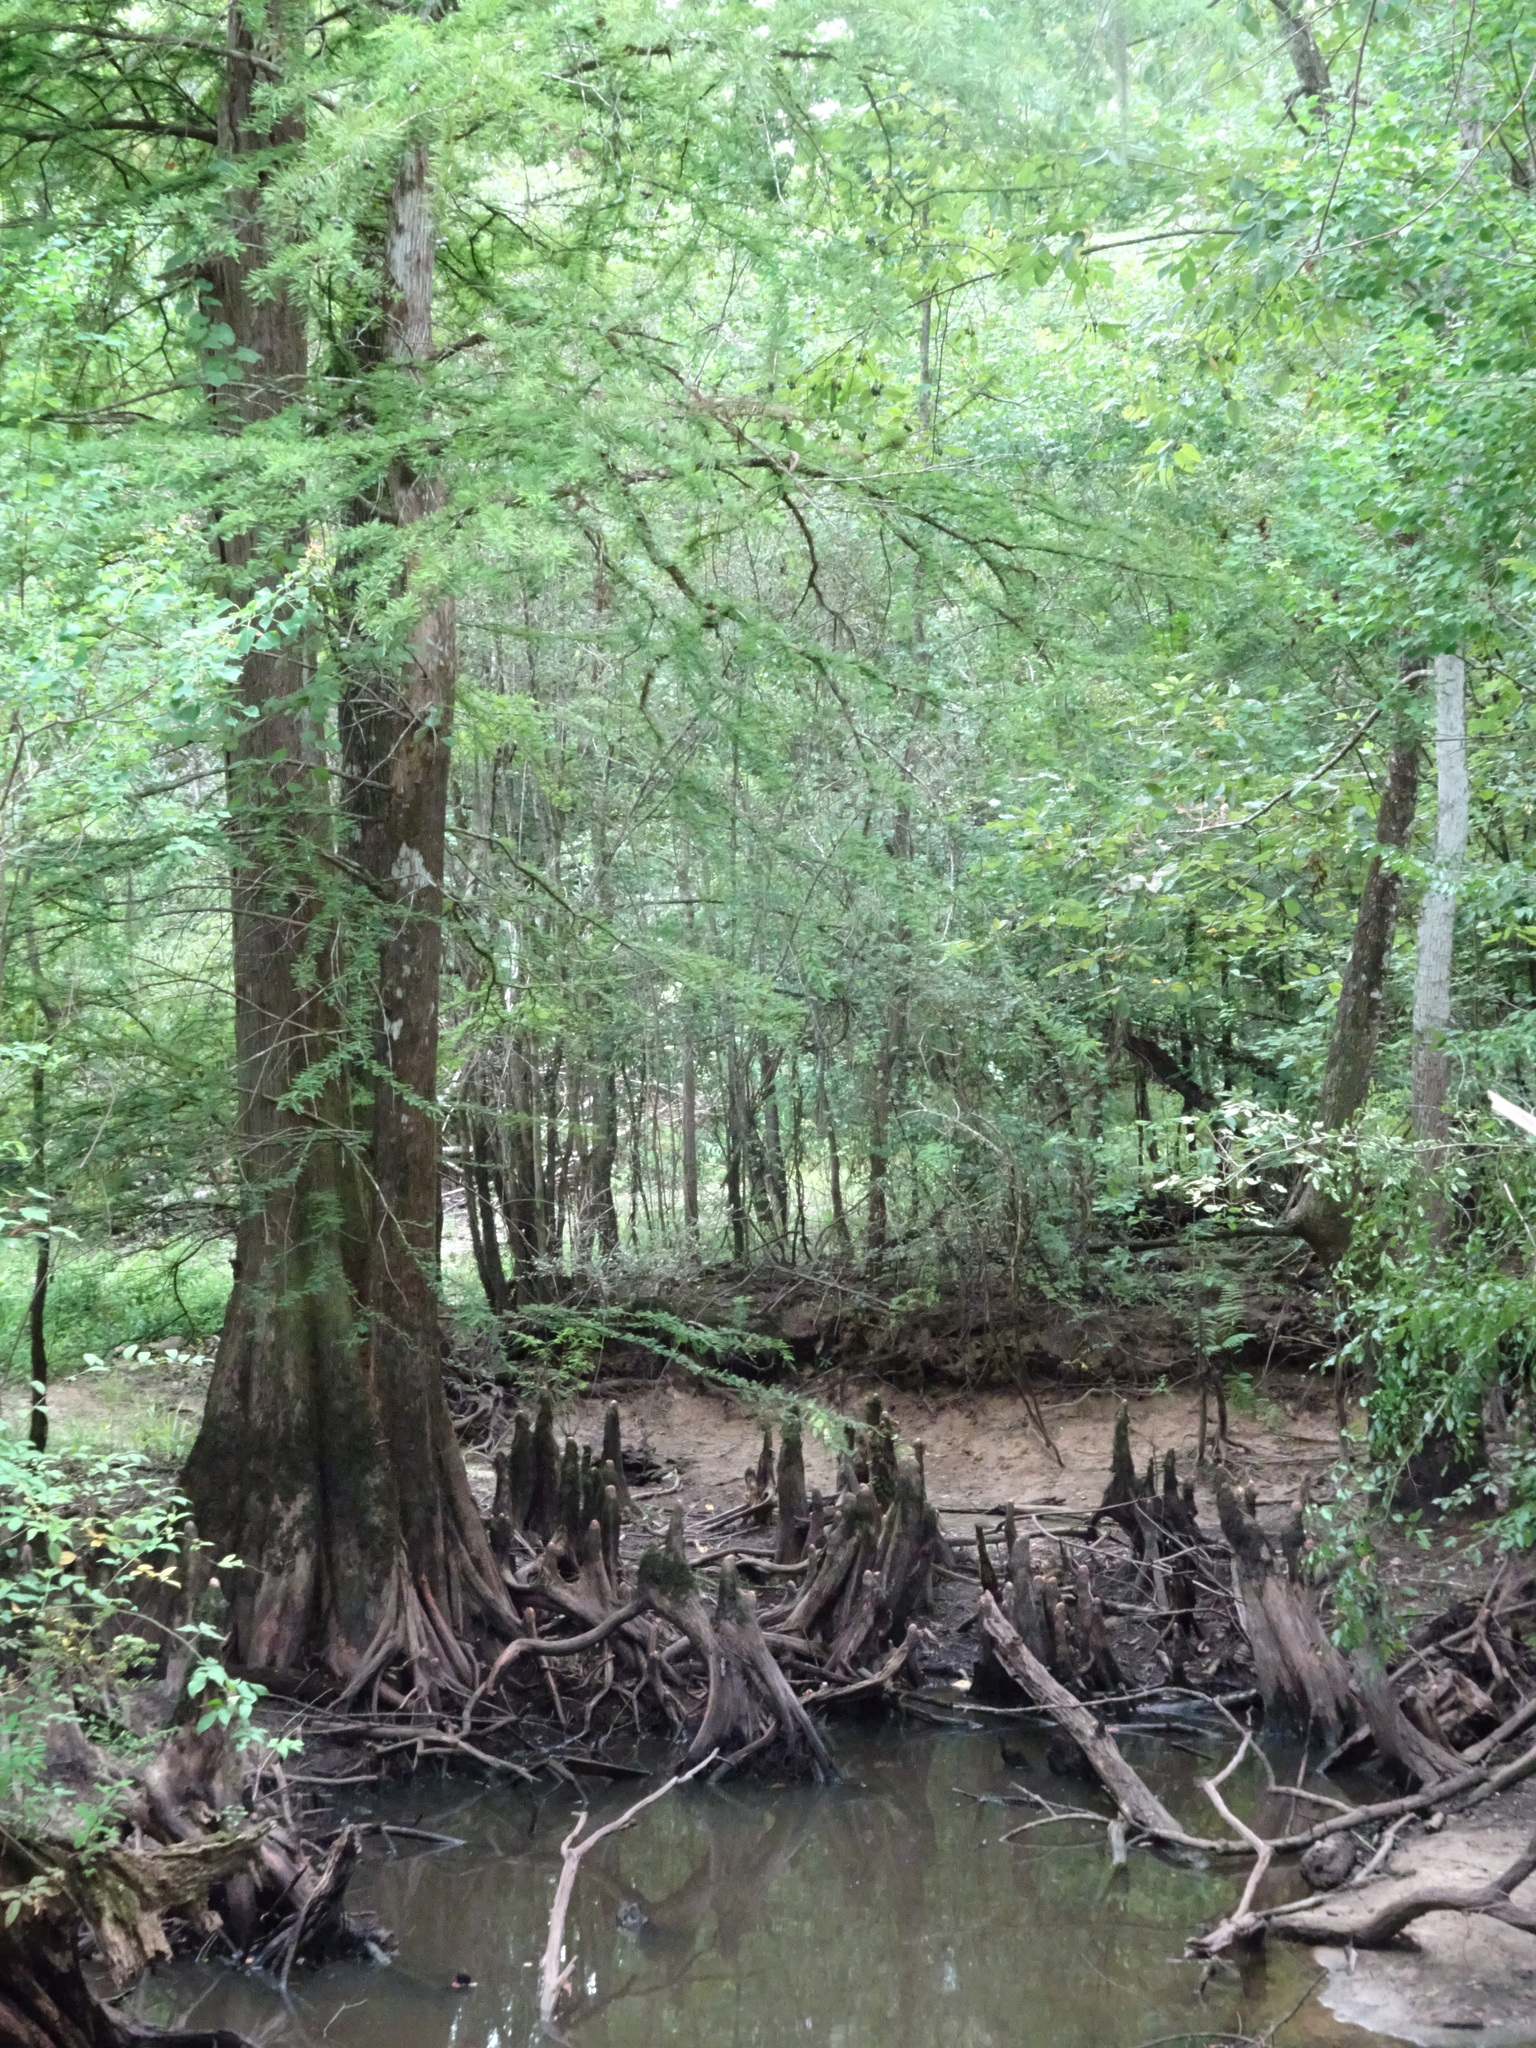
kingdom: Plantae
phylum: Tracheophyta
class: Pinopsida
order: Pinales
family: Cupressaceae
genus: Taxodium
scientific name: Taxodium distichum
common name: Bald cypress
